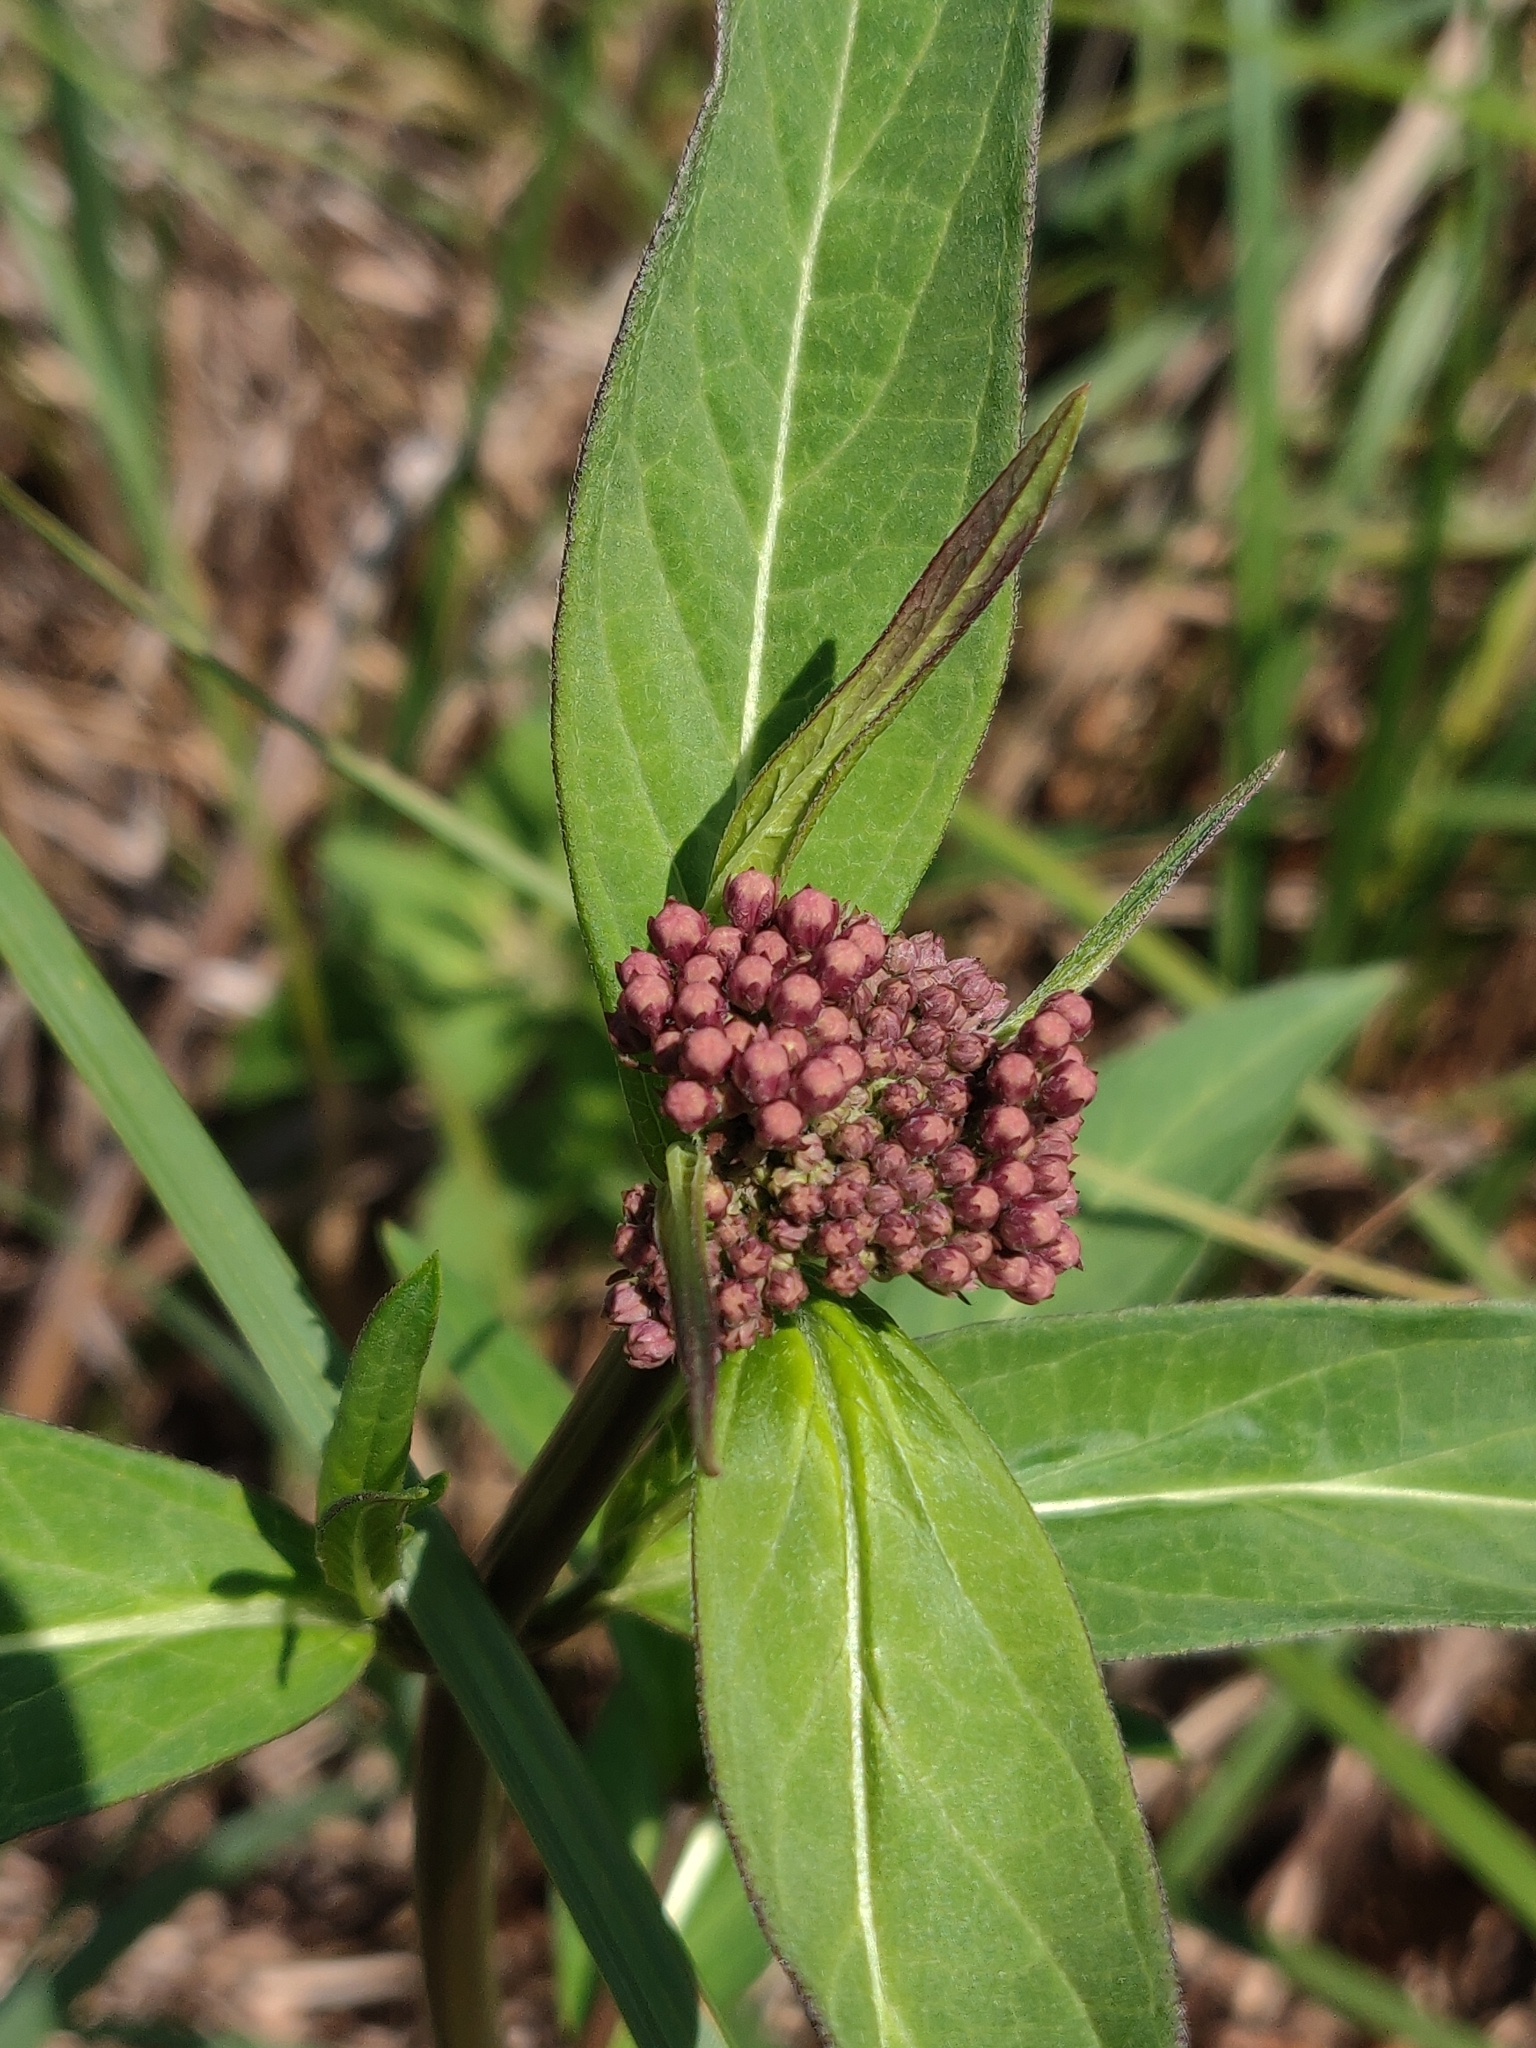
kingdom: Plantae
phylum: Tracheophyta
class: Magnoliopsida
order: Gentianales
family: Apocynaceae
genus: Asclepias
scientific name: Asclepias incarnata
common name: Swamp milkweed
